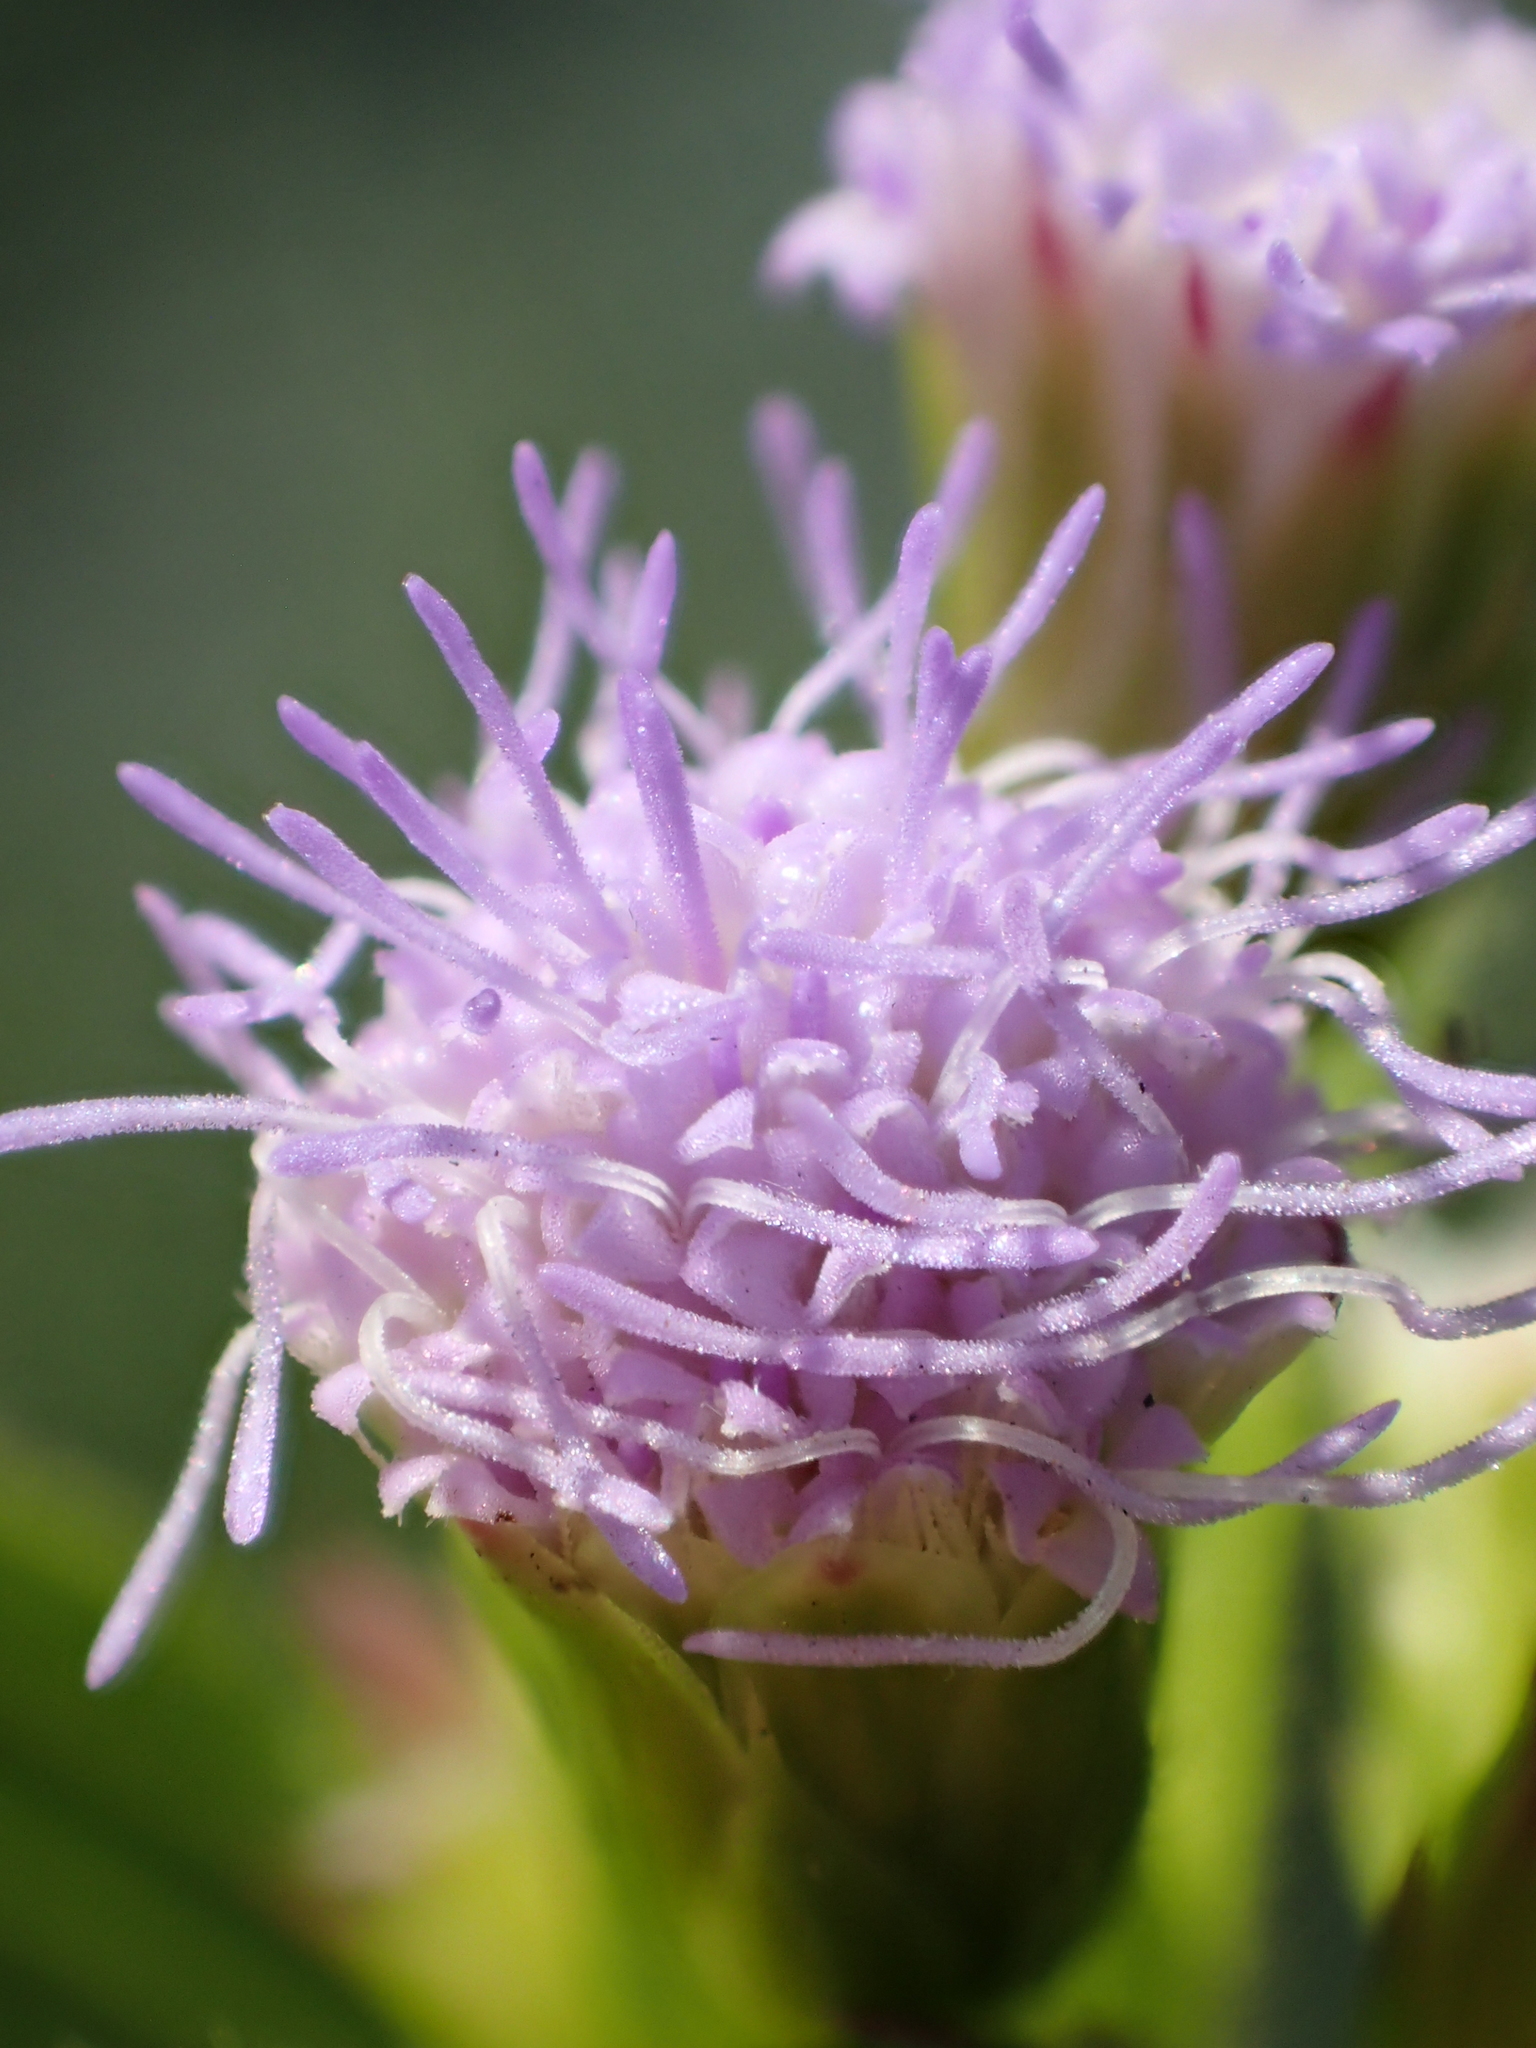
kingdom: Plantae
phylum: Tracheophyta
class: Magnoliopsida
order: Asterales
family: Asteraceae
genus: Praxelis
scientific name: Praxelis clematidea
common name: Praxelis
